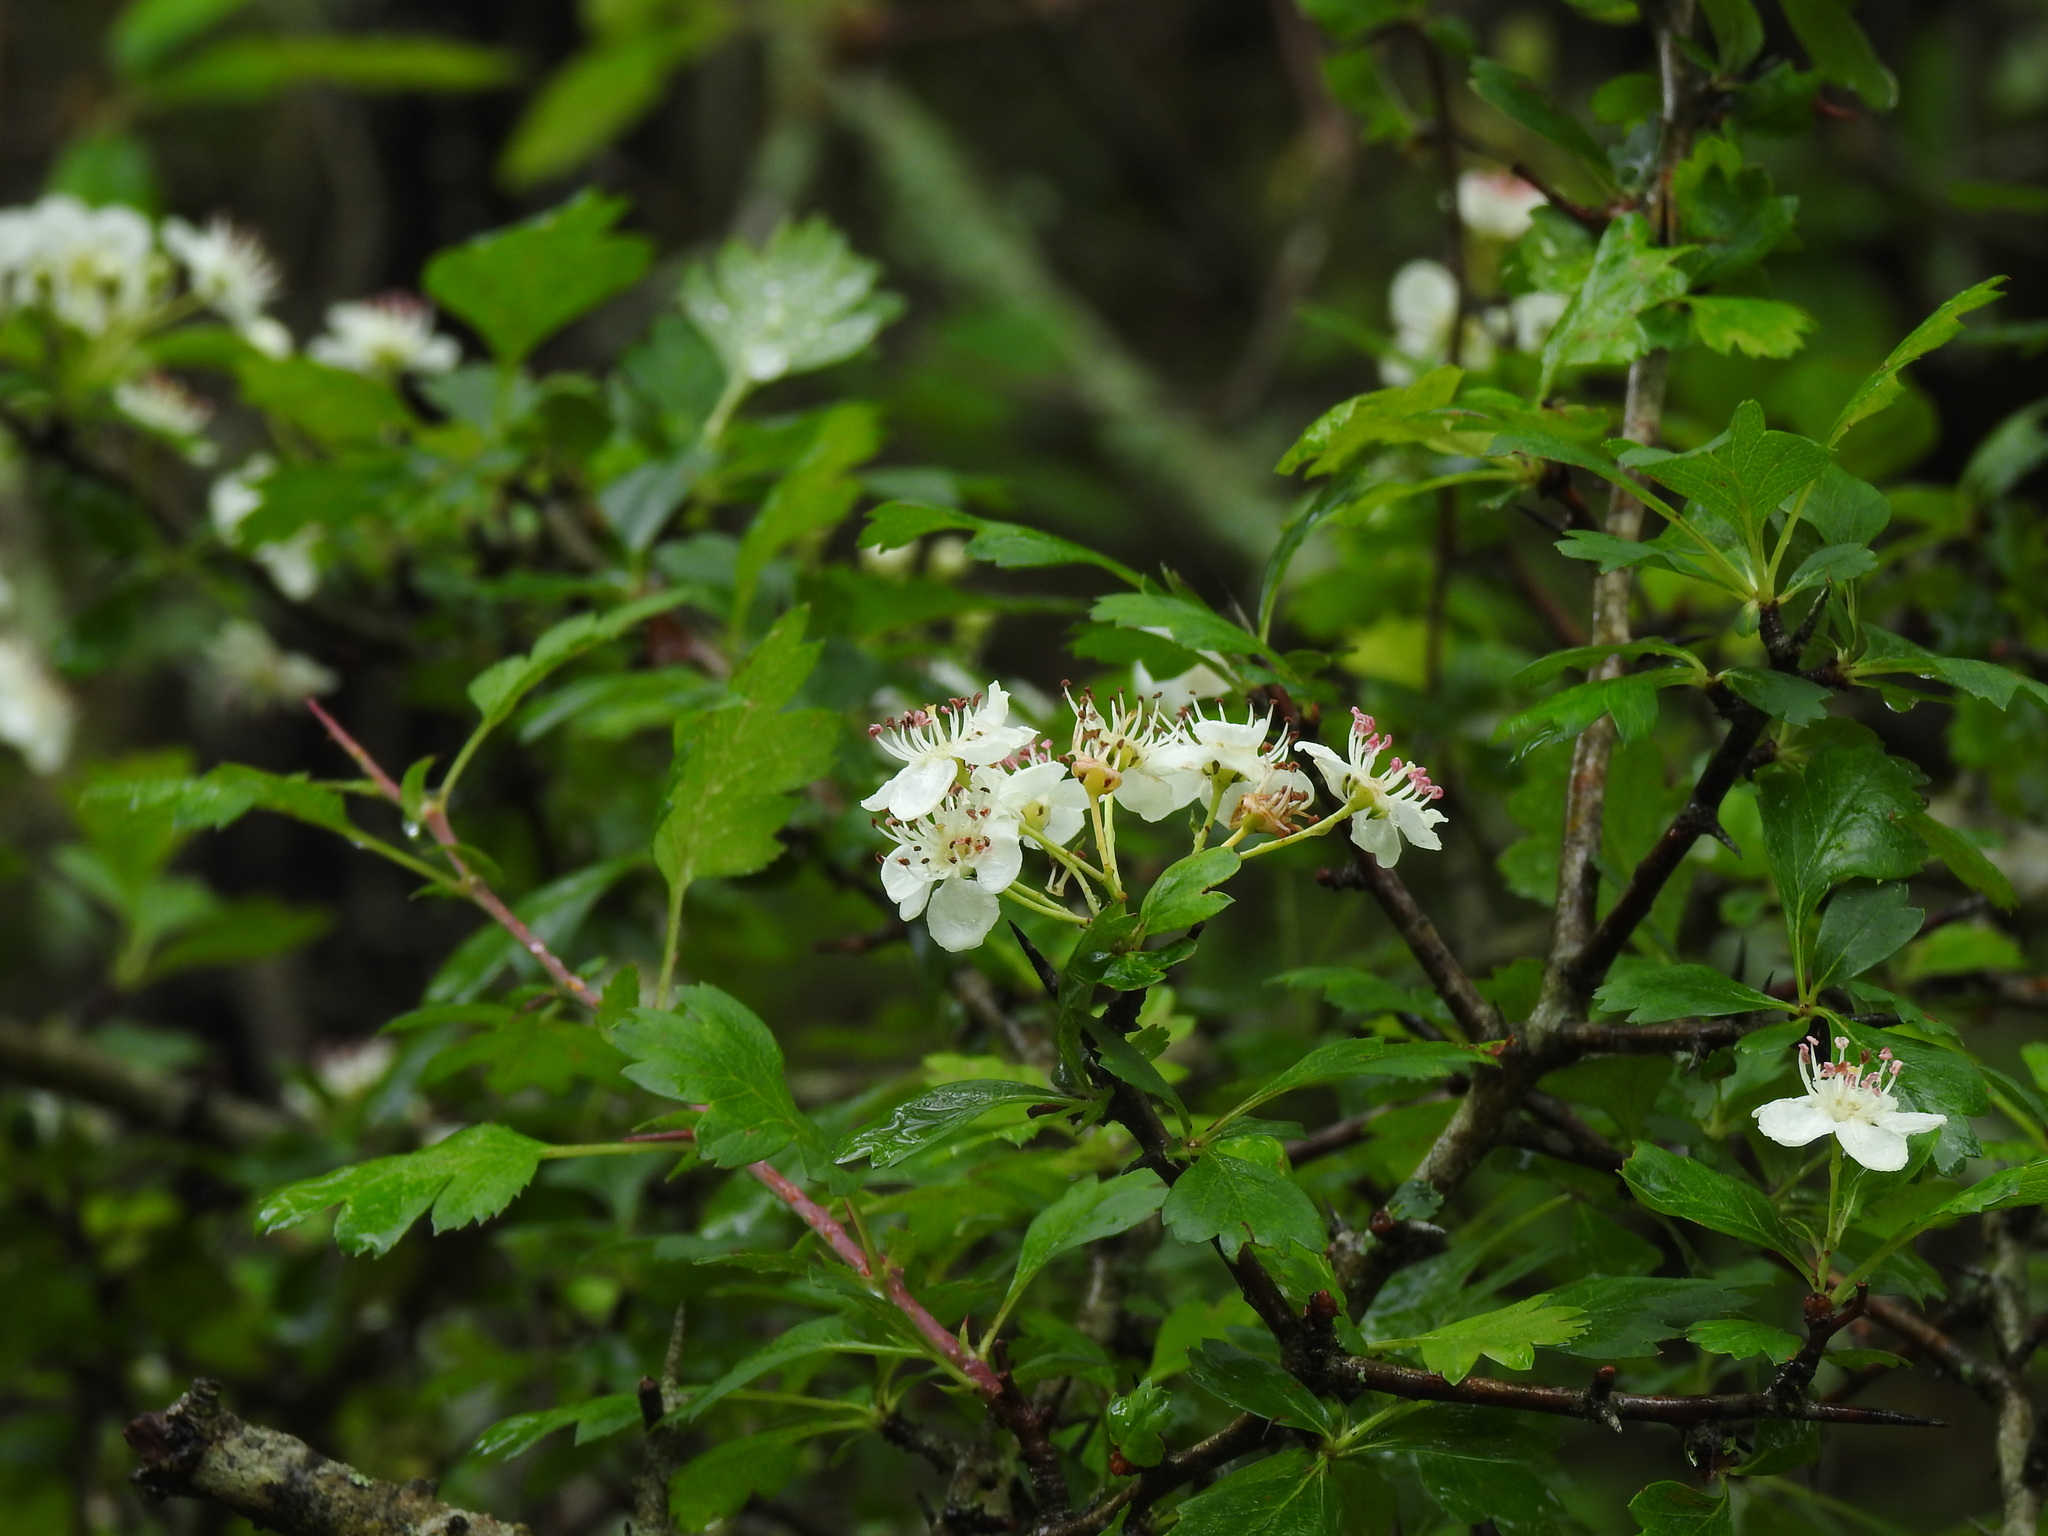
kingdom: Plantae
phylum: Tracheophyta
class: Magnoliopsida
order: Rosales
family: Rosaceae
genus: Crataegus
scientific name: Crataegus monogyna
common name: Hawthorn
